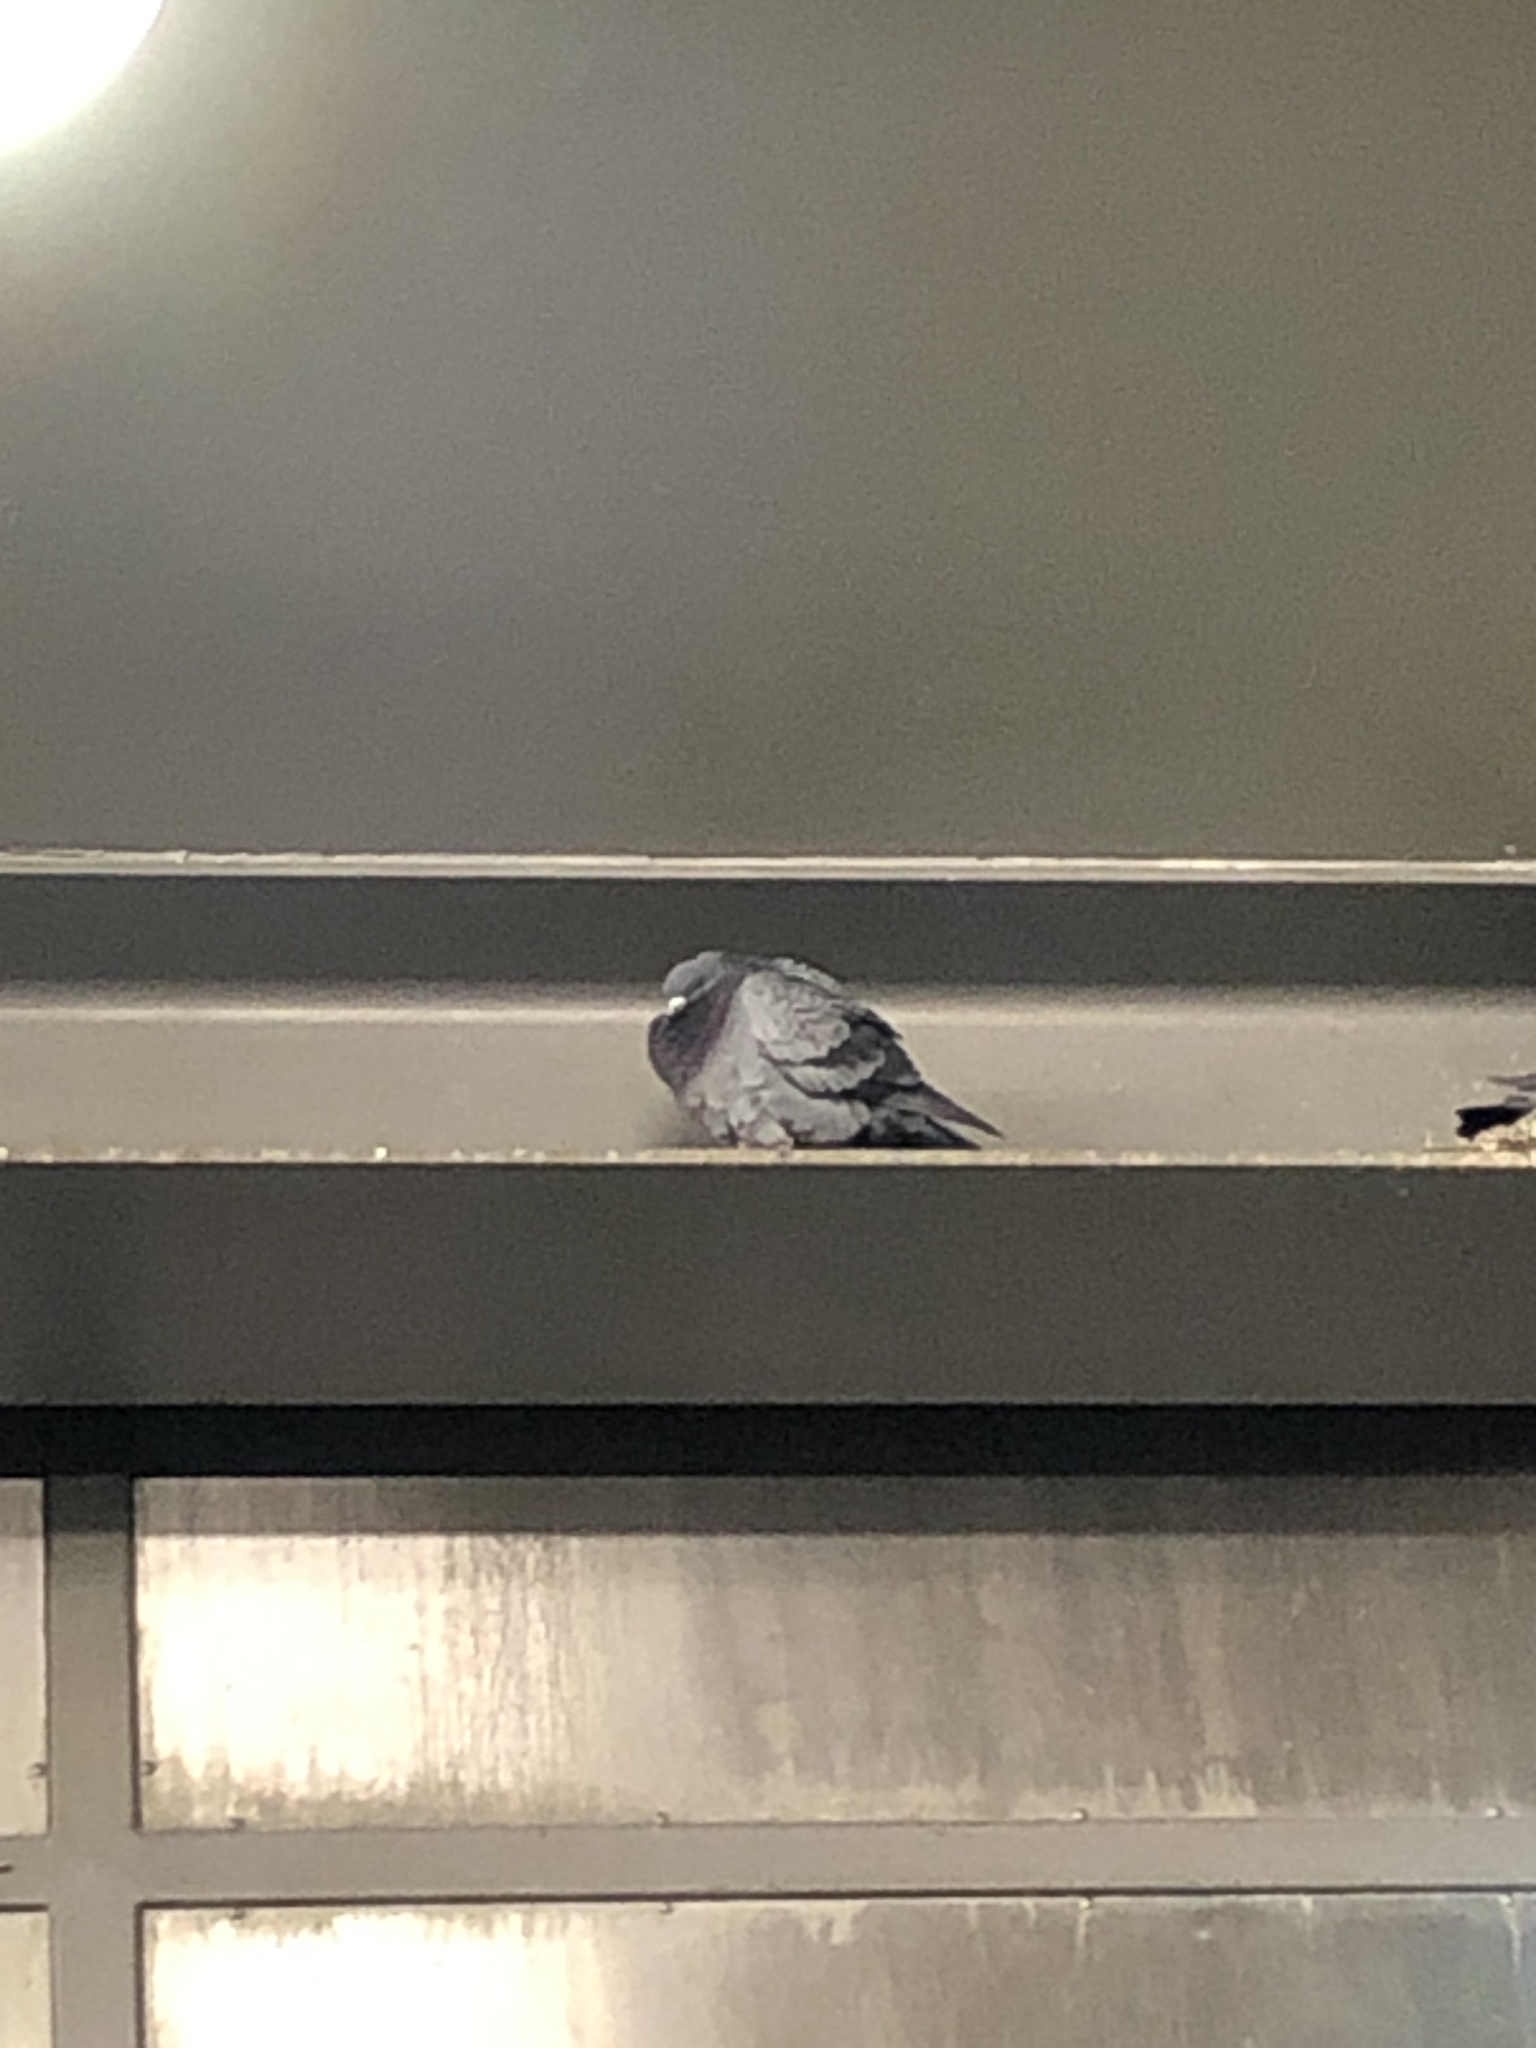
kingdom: Animalia
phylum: Chordata
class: Aves
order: Columbiformes
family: Columbidae
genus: Columba
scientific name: Columba livia
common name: Rock pigeon
